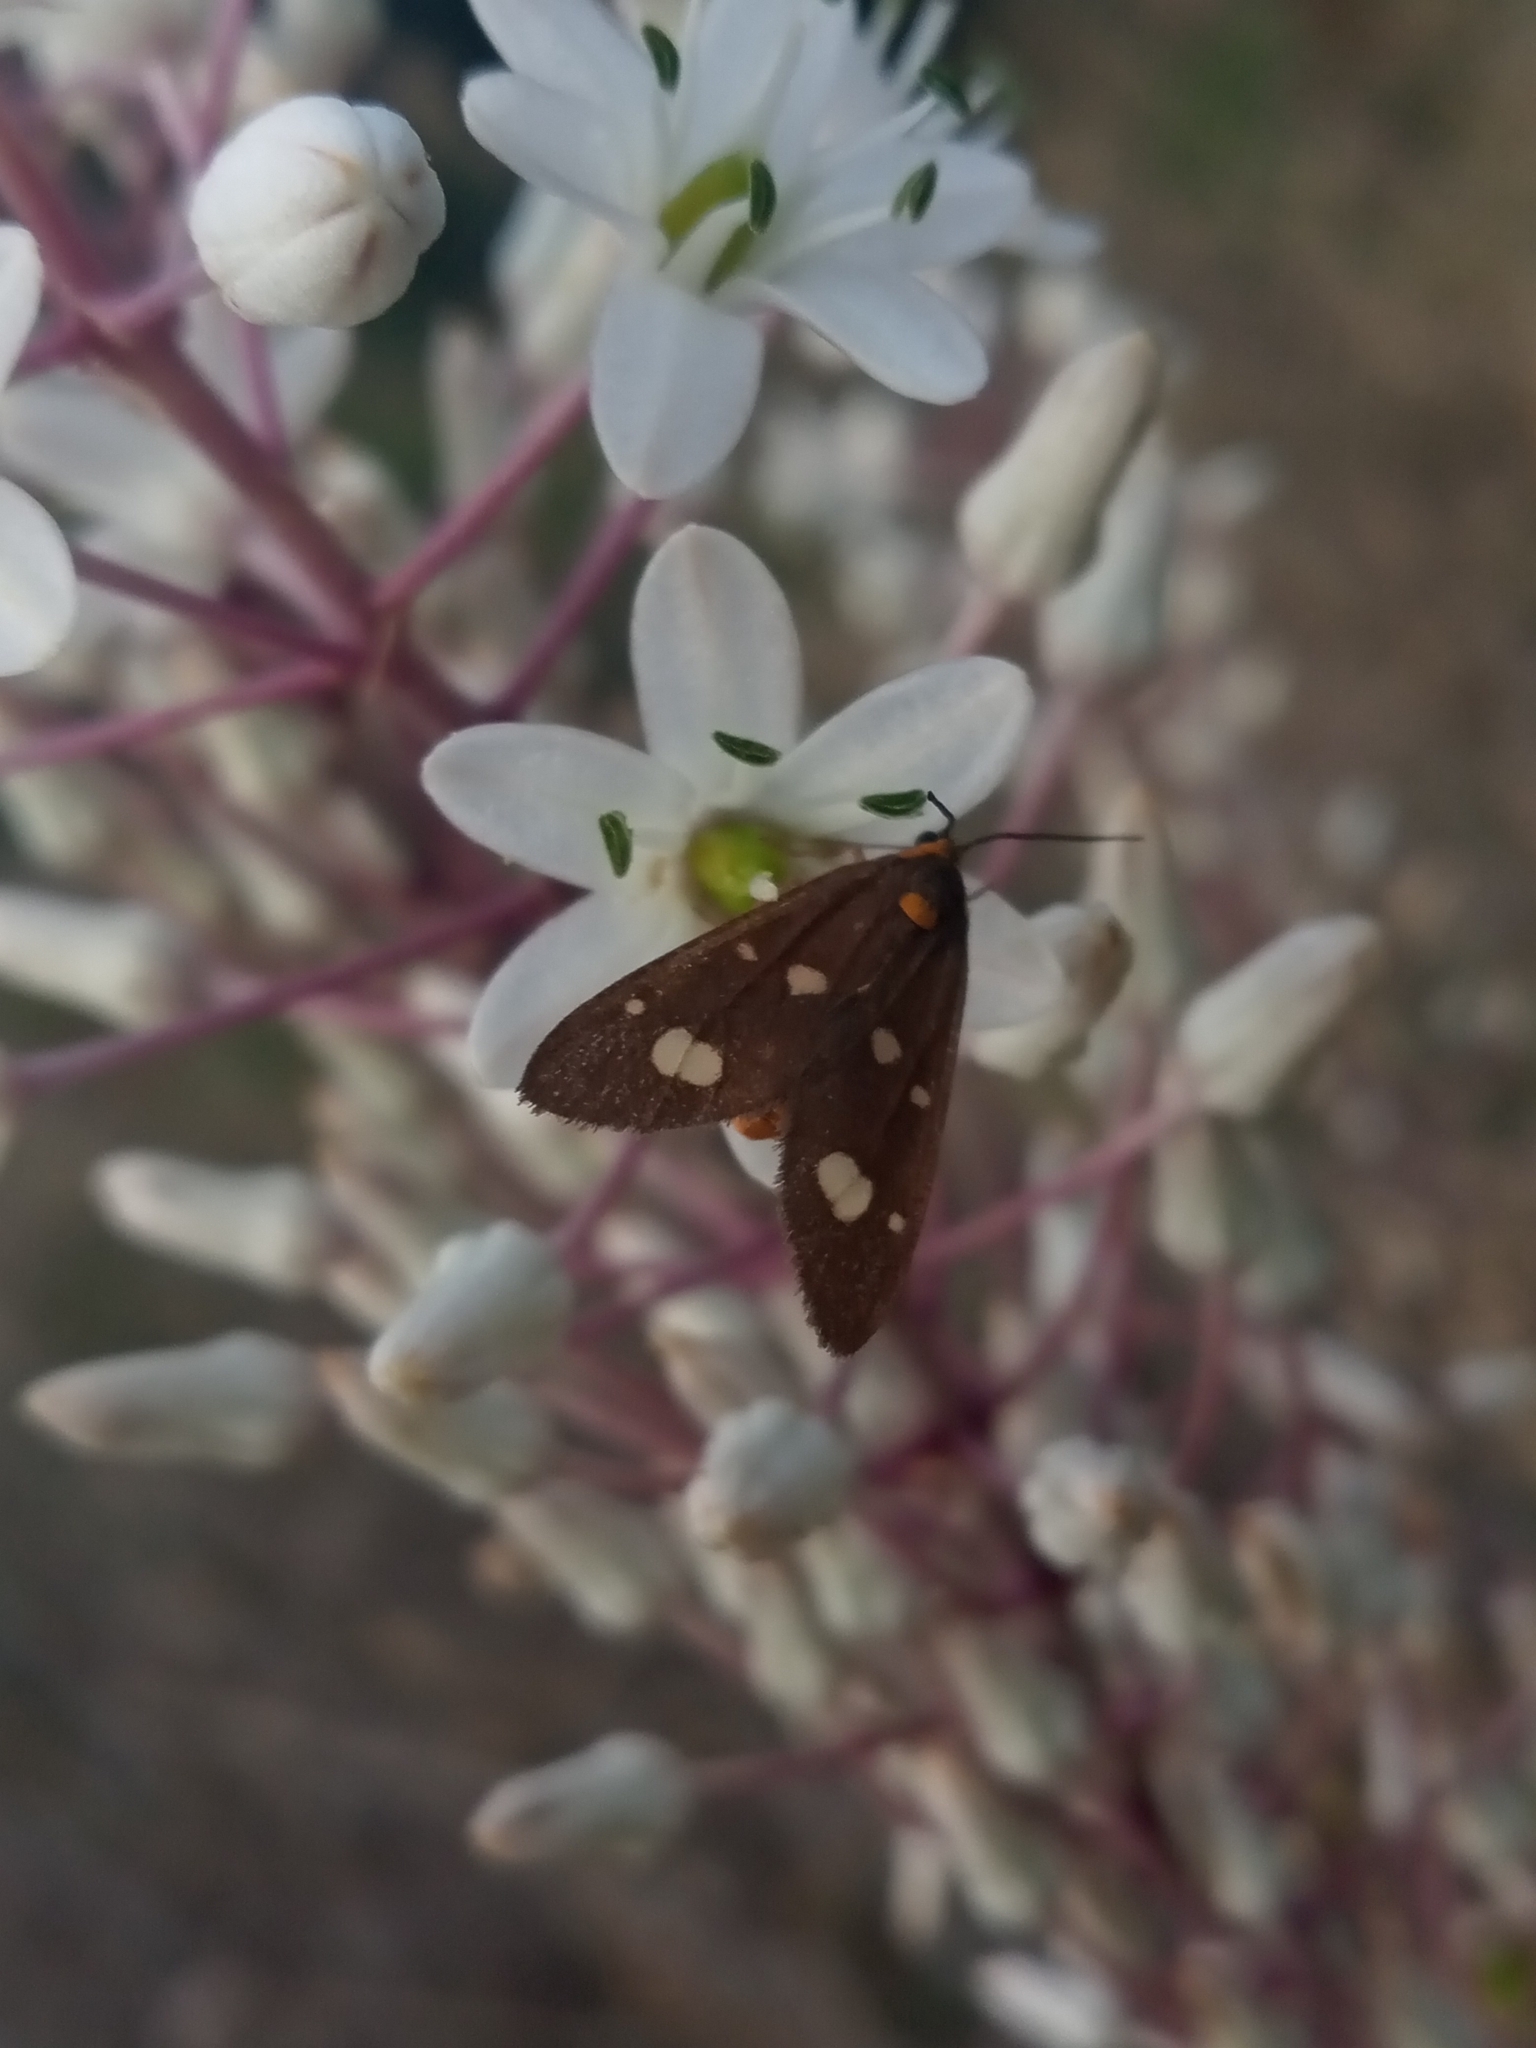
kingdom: Animalia
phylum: Arthropoda
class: Insecta
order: Lepidoptera
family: Erebidae
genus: Dysauxes
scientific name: Dysauxes punctata
